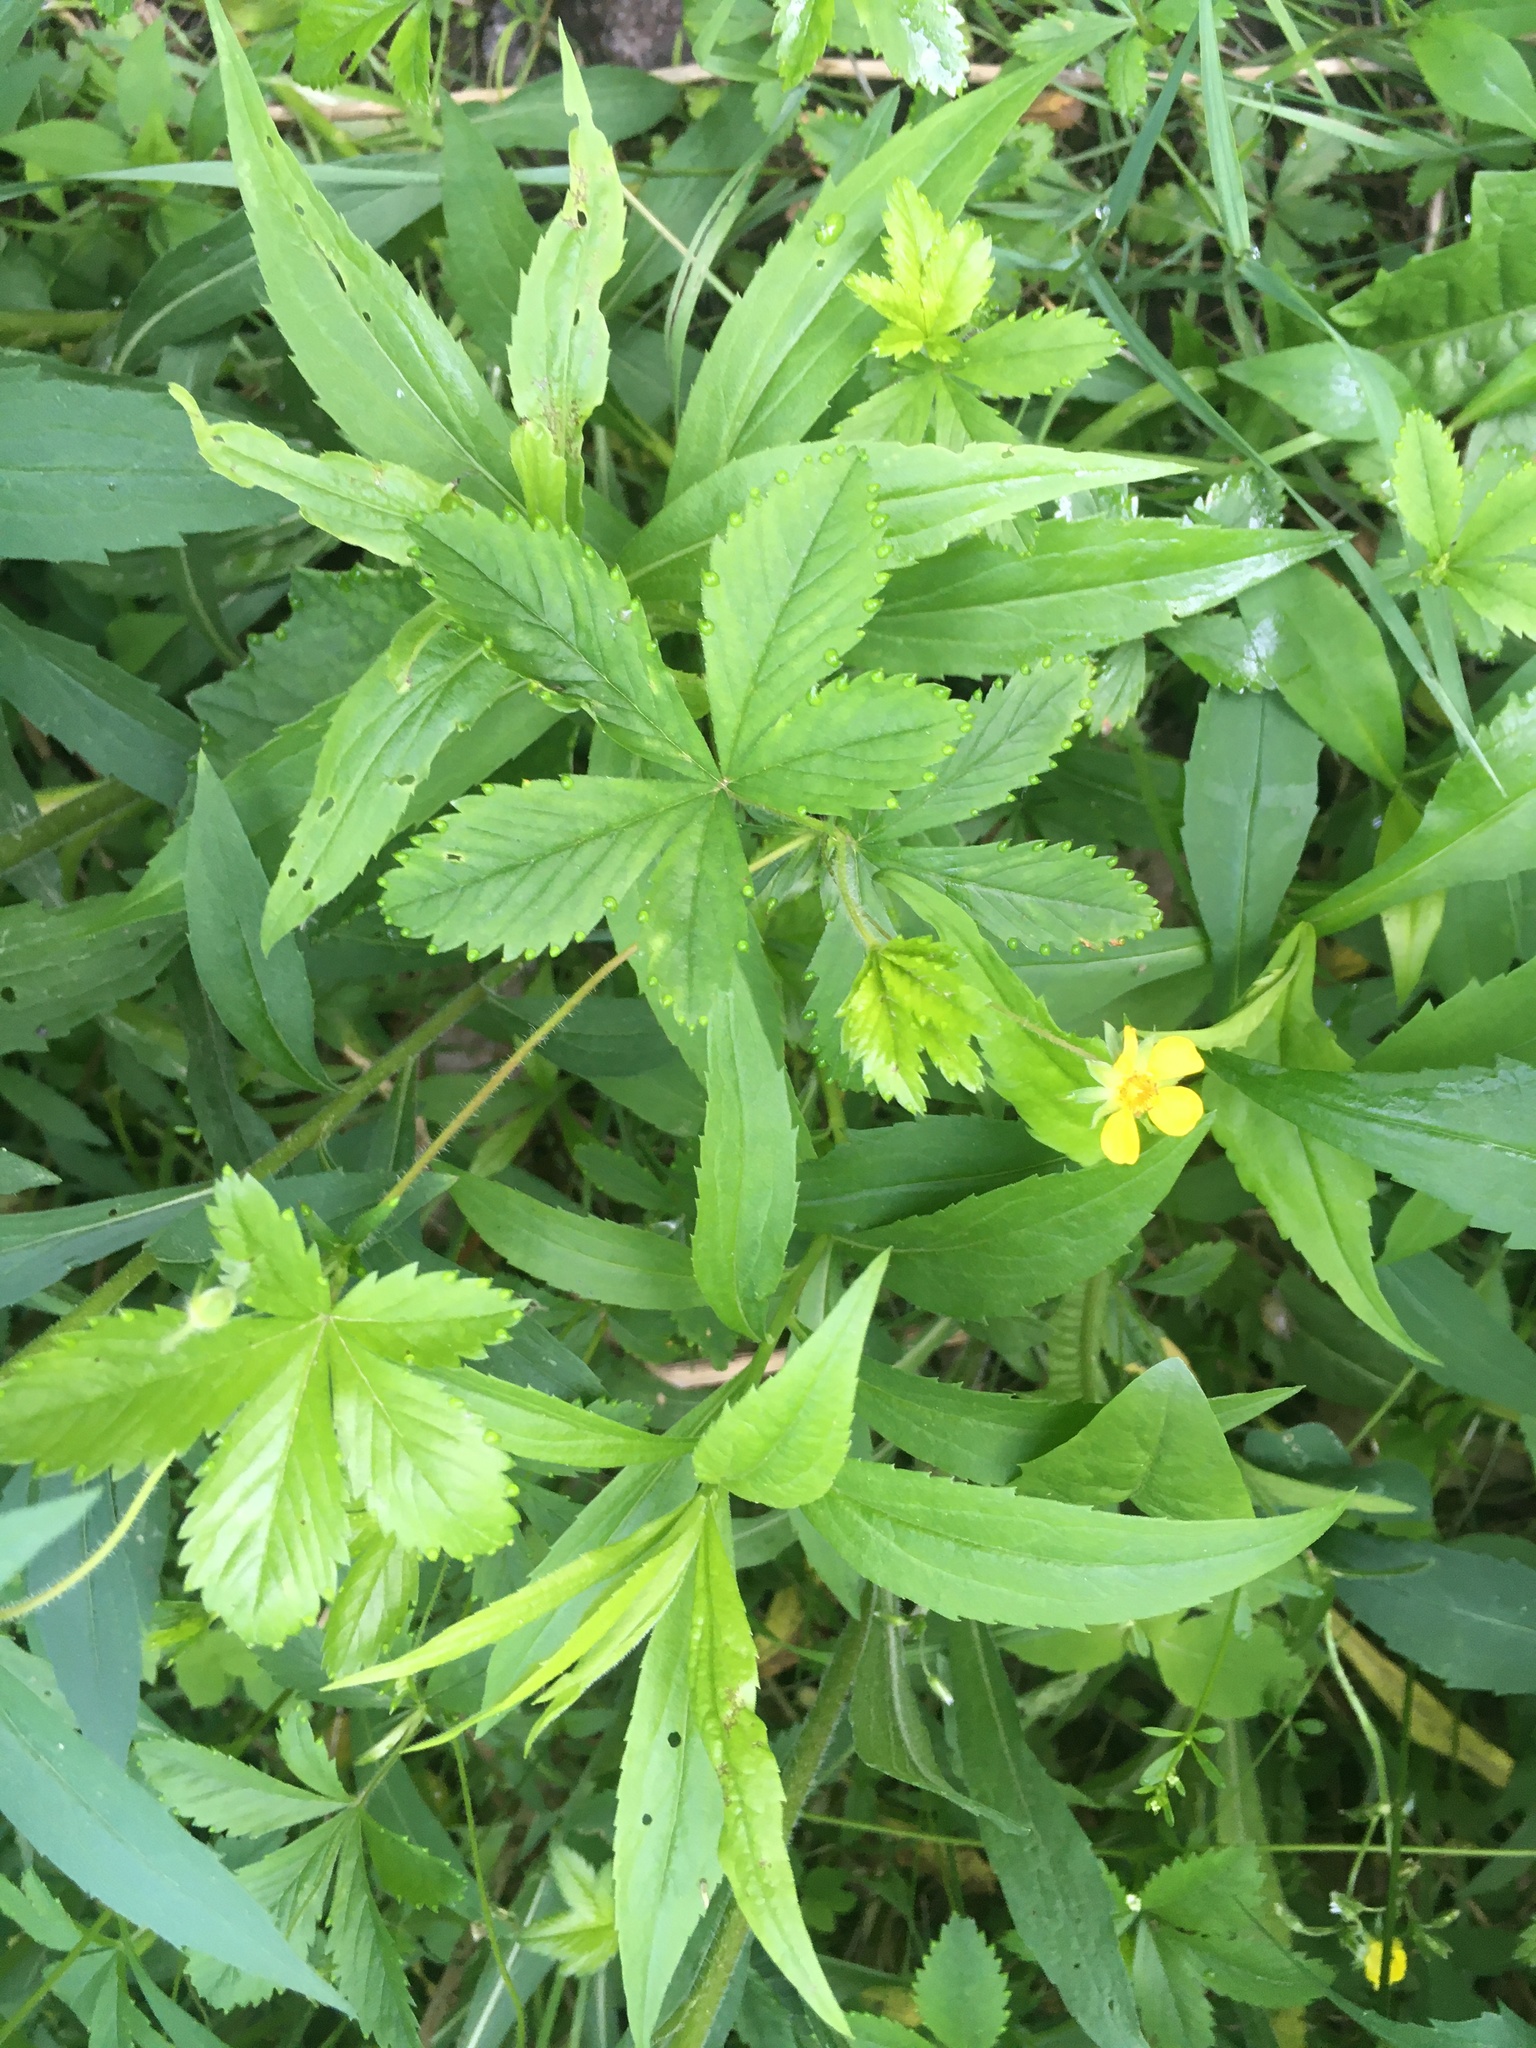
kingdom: Plantae
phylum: Tracheophyta
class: Magnoliopsida
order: Rosales
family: Rosaceae
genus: Potentilla
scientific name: Potentilla simplex
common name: Old field cinquefoil
